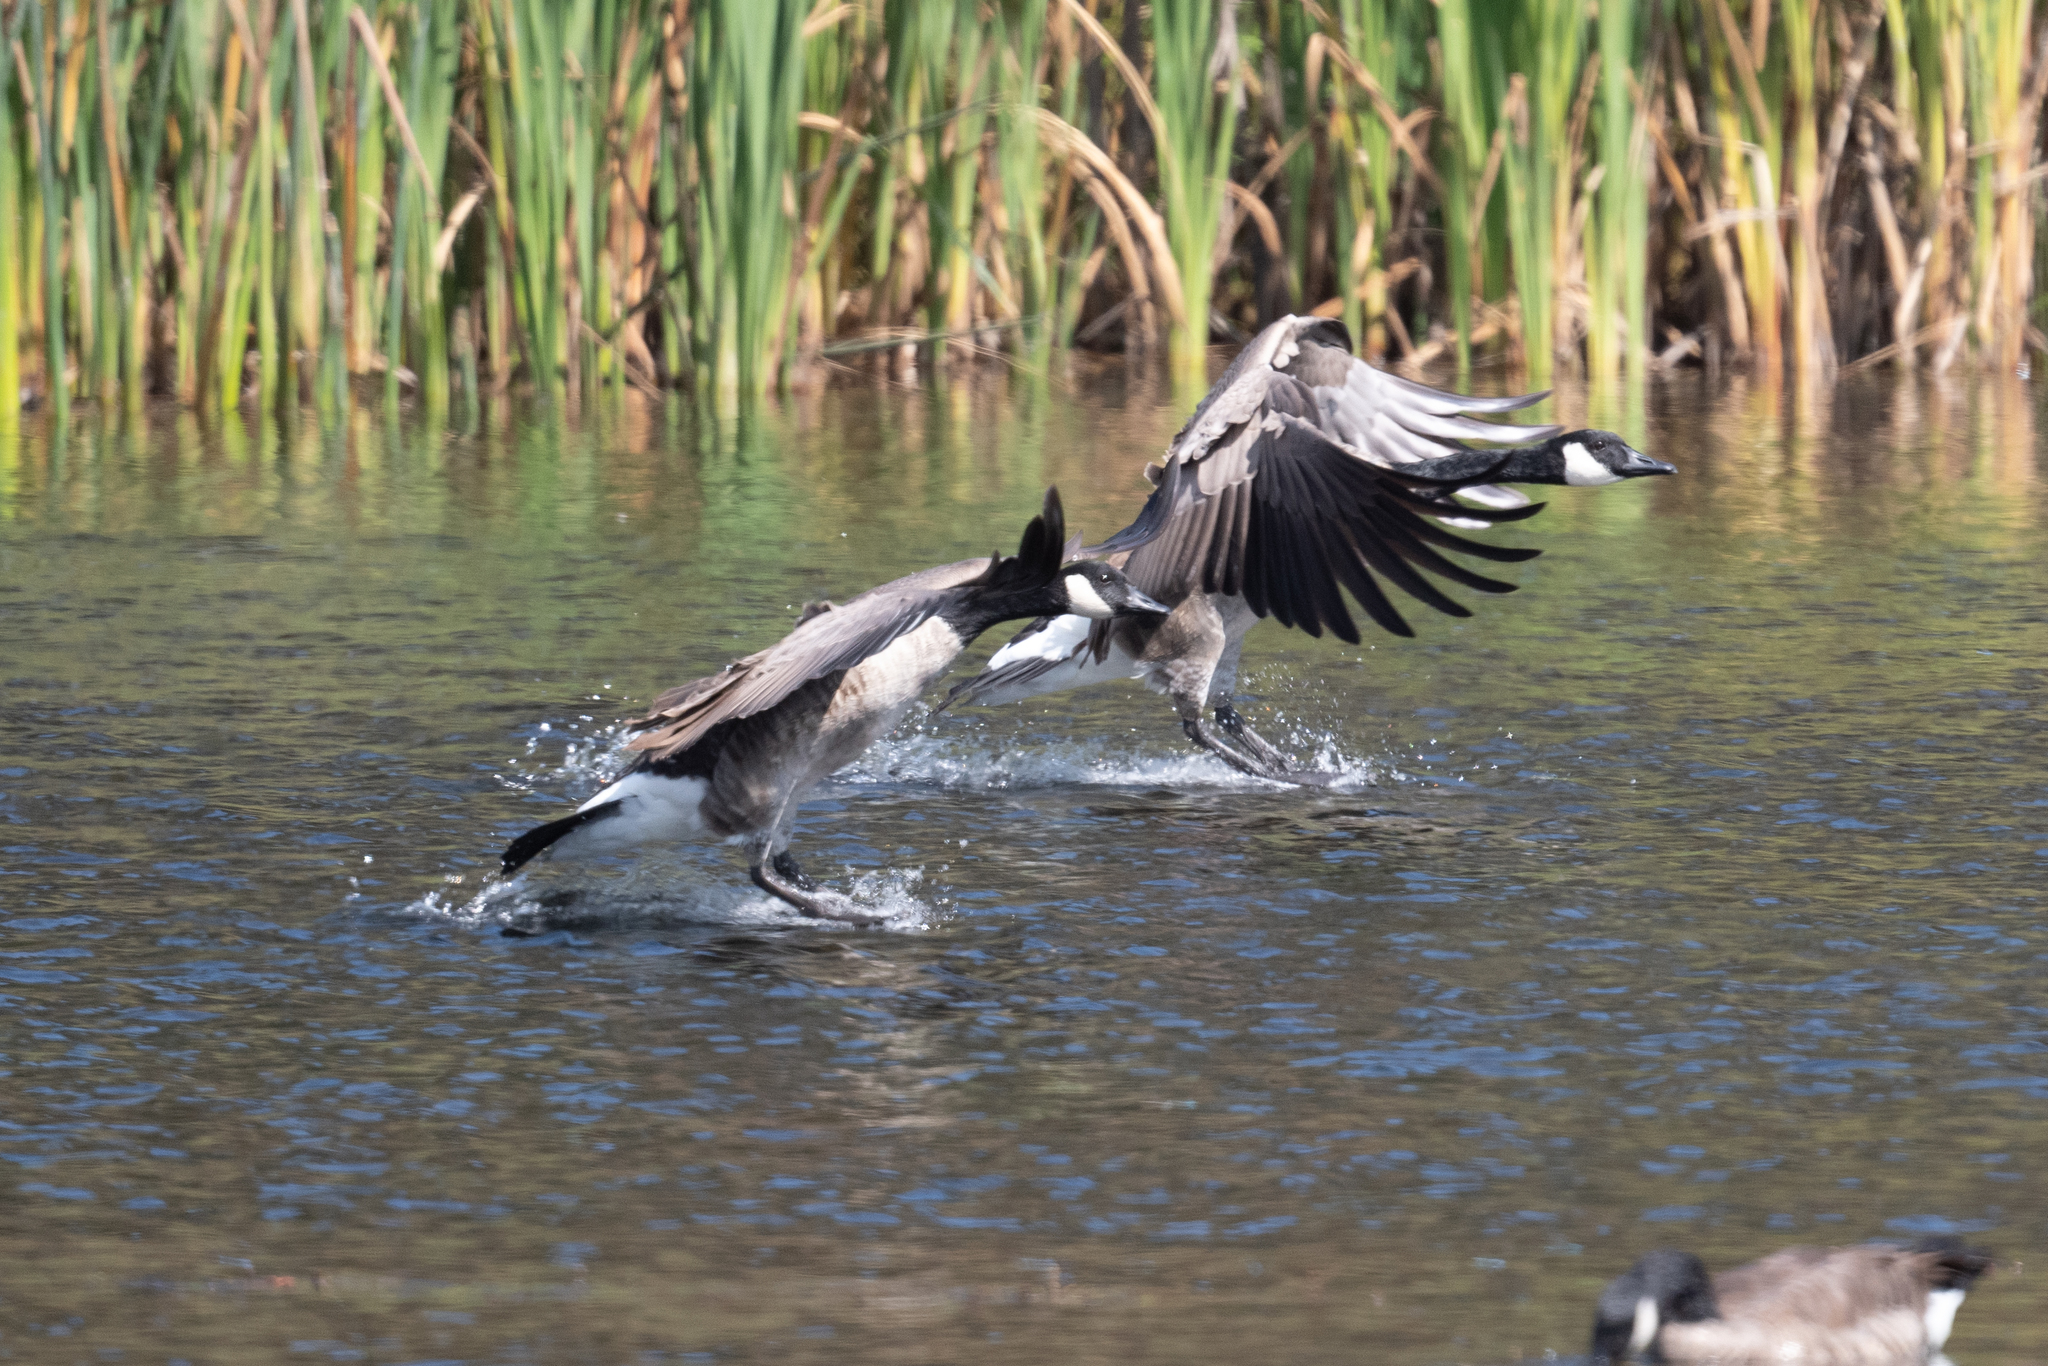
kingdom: Animalia
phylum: Chordata
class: Aves
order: Anseriformes
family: Anatidae
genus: Branta
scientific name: Branta canadensis
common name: Canada goose
